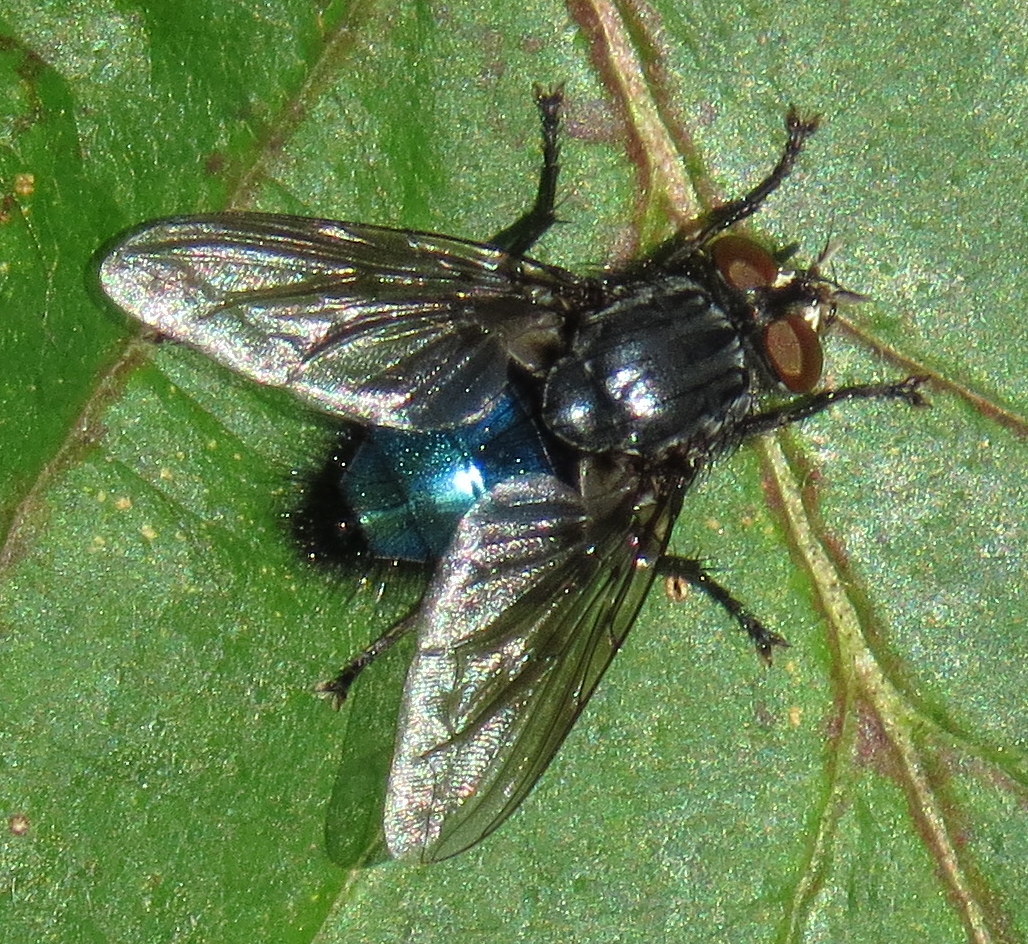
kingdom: Animalia
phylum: Arthropoda
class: Insecta
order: Diptera
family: Calliphoridae
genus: Cynomya
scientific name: Cynomya cadaverina
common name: Shiny blue bottle fly
